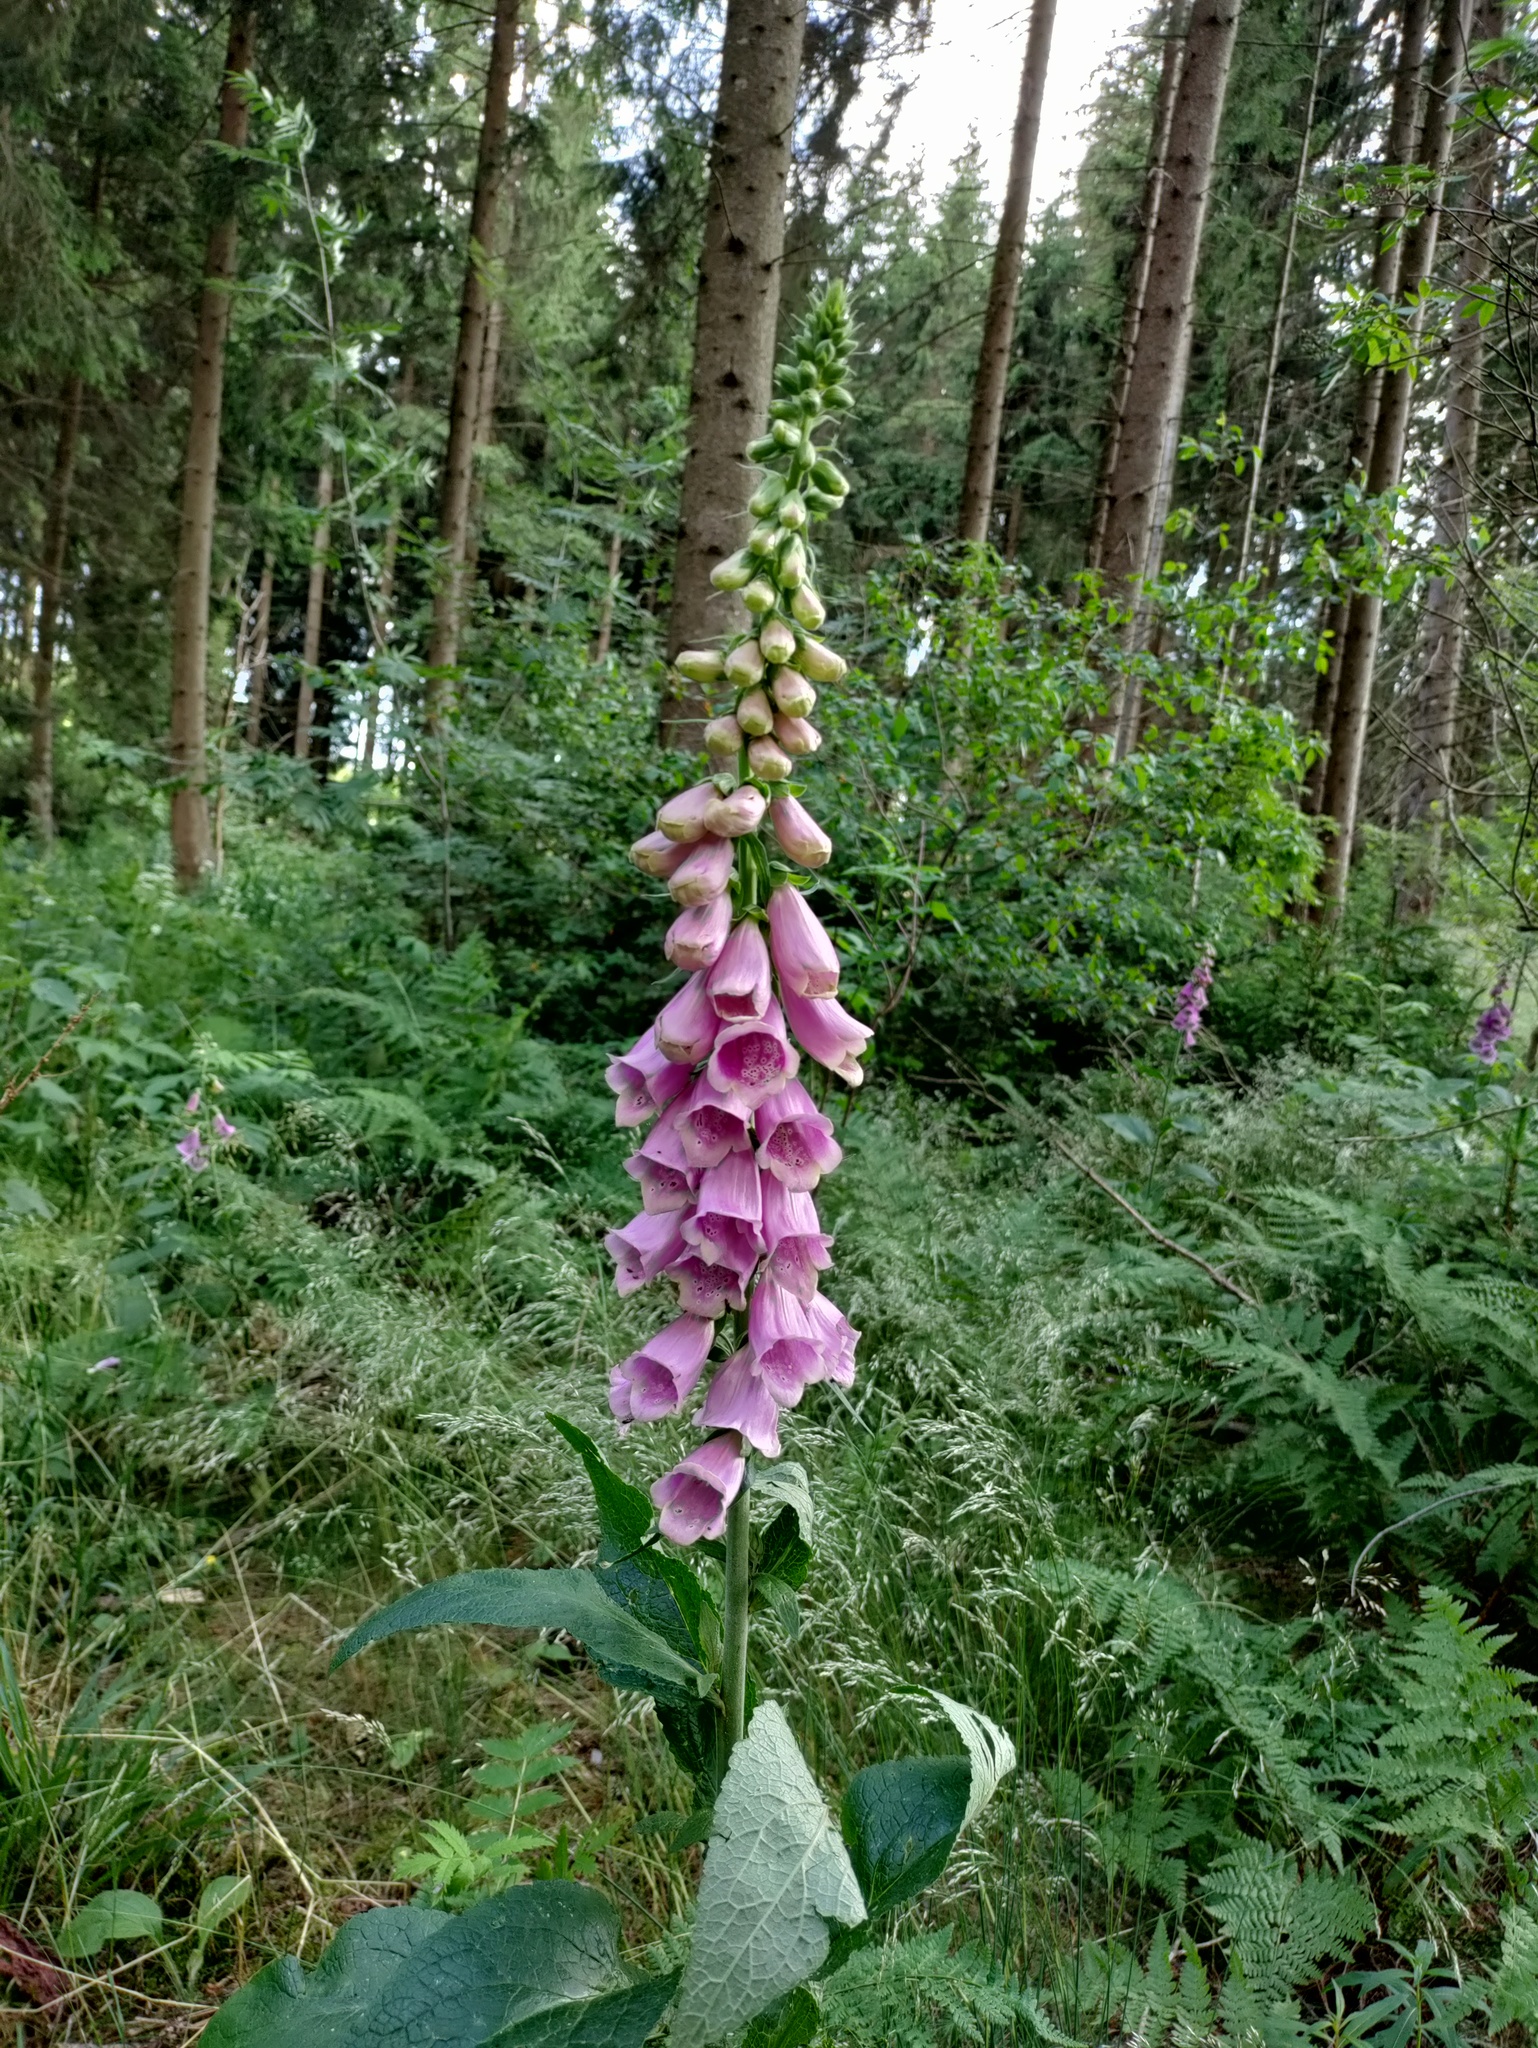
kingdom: Plantae
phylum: Tracheophyta
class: Magnoliopsida
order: Lamiales
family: Plantaginaceae
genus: Digitalis
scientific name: Digitalis purpurea
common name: Foxglove
